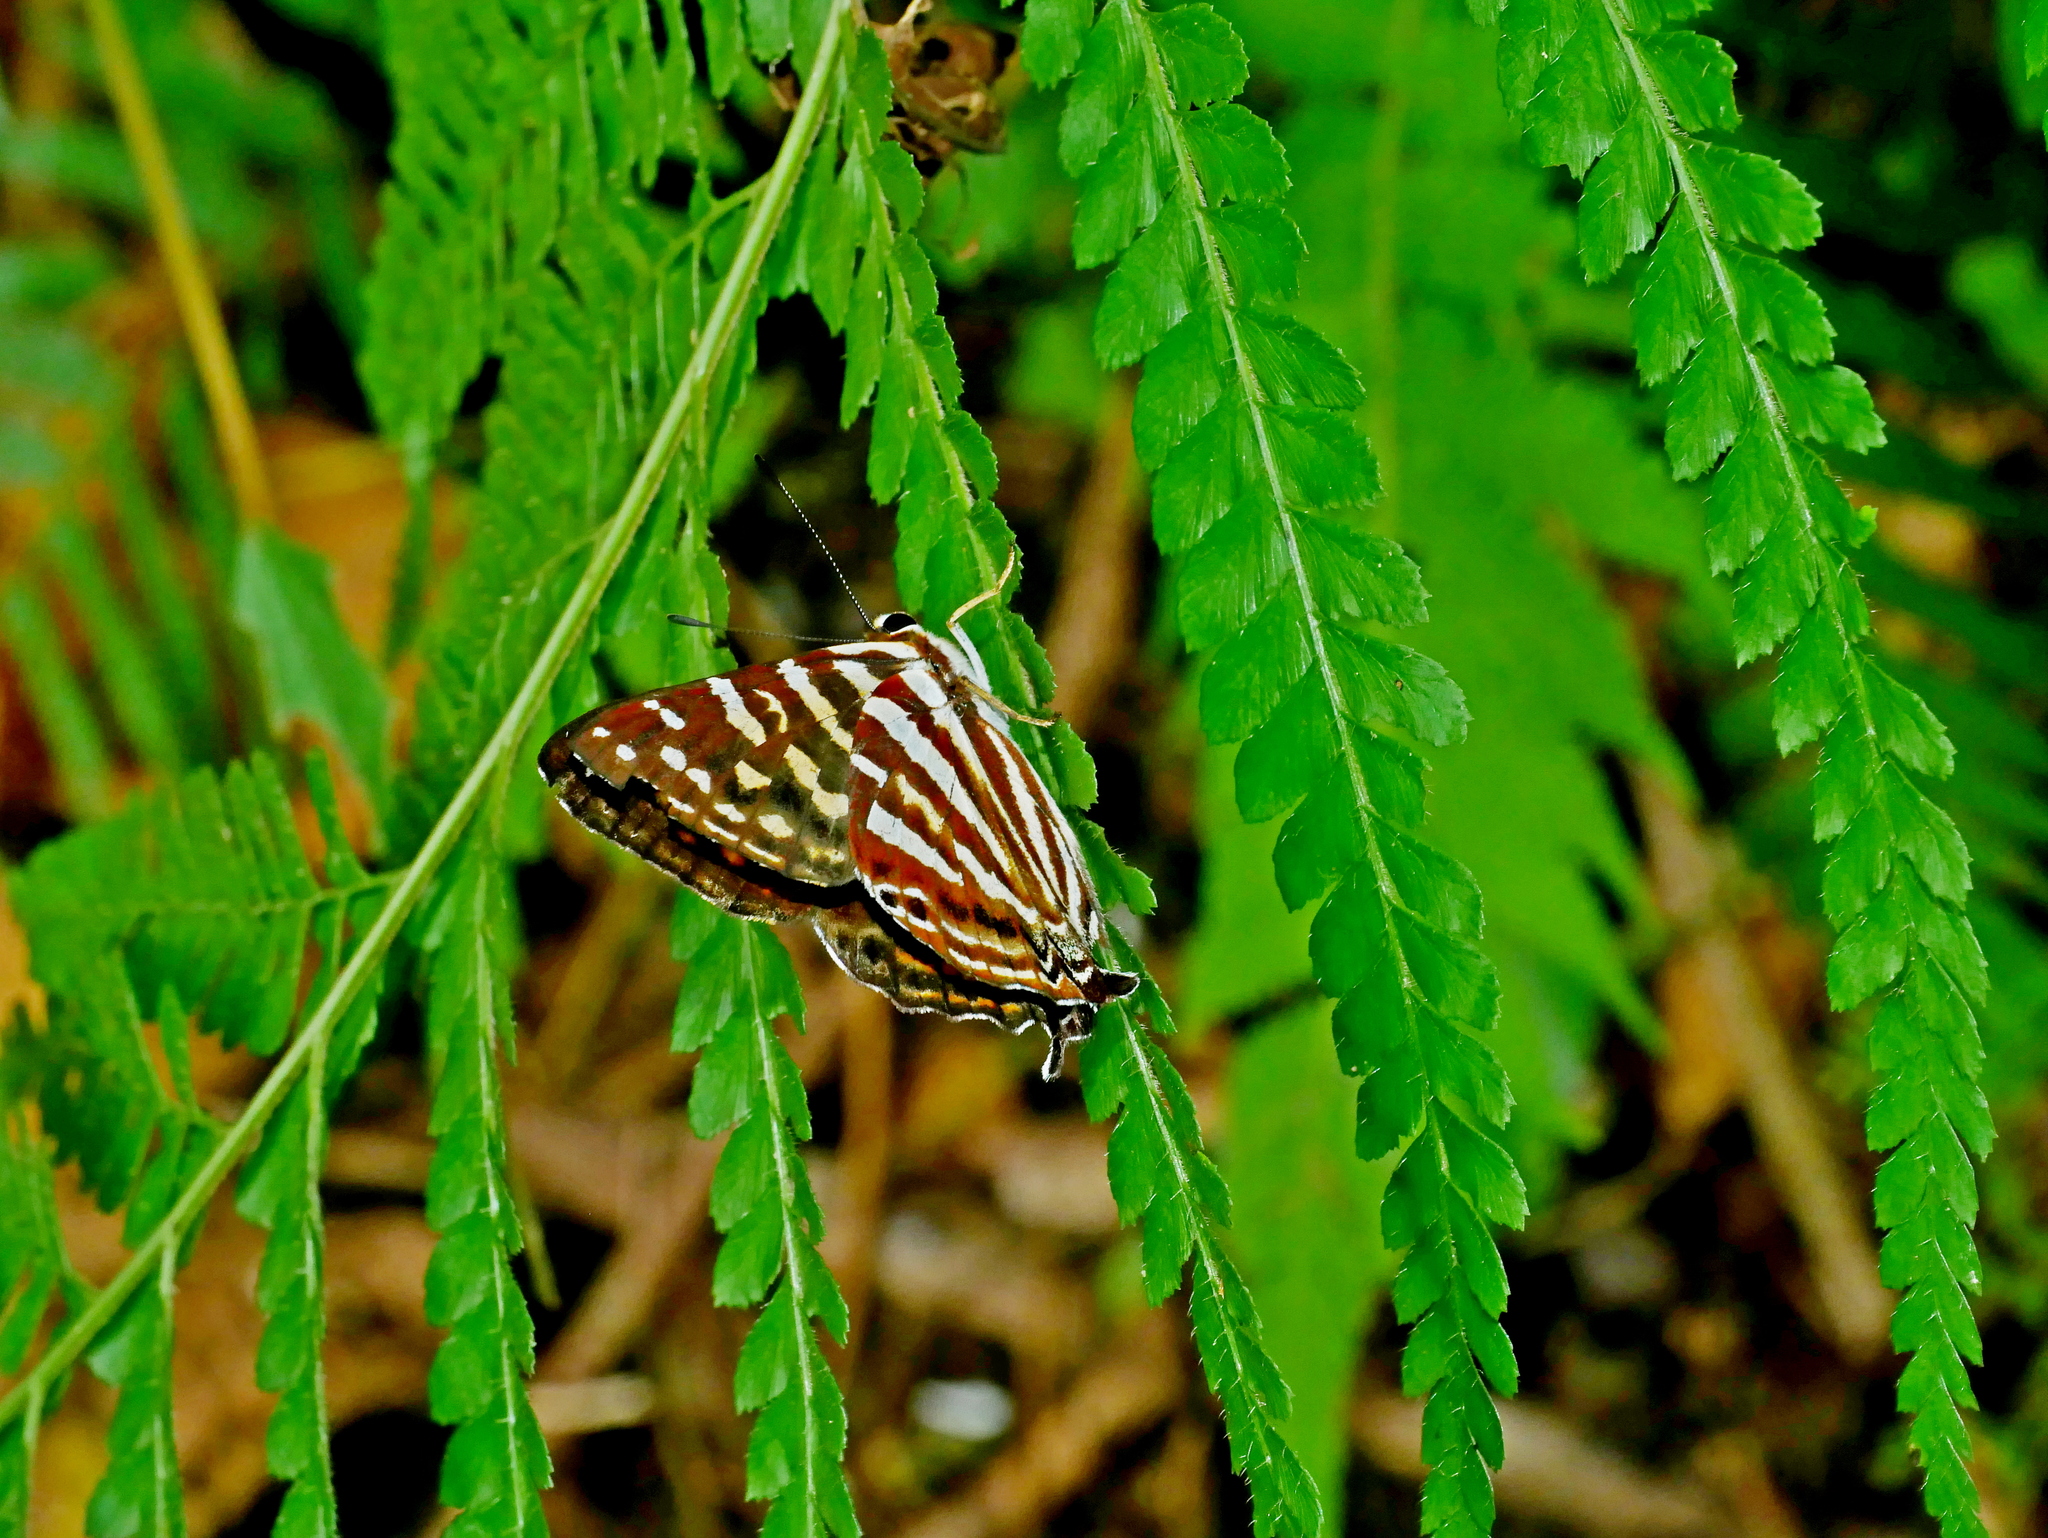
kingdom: Animalia
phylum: Arthropoda
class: Insecta
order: Lepidoptera
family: Lycaenidae
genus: Dodona
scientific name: Dodona eugenes
